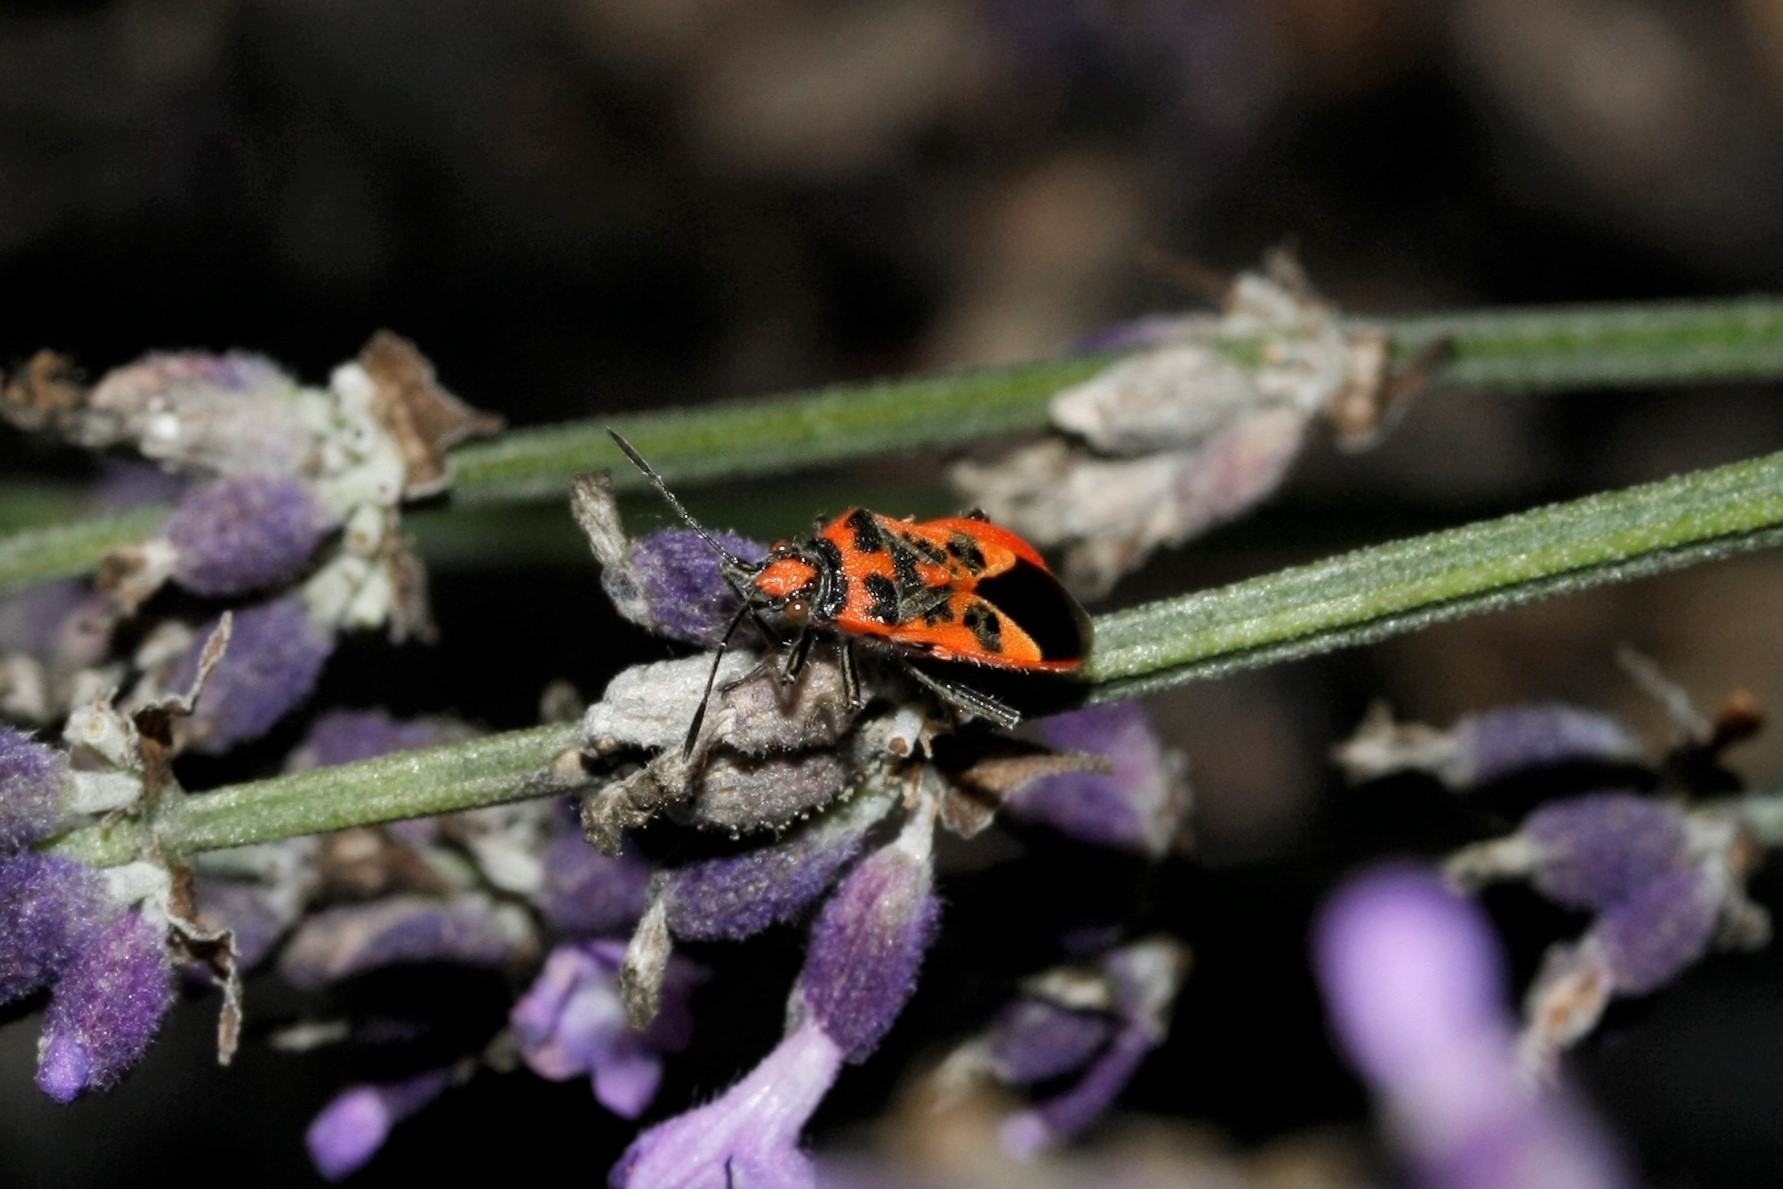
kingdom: Animalia
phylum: Arthropoda
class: Insecta
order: Hemiptera
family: Rhopalidae
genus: Corizus
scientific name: Corizus hyoscyami
